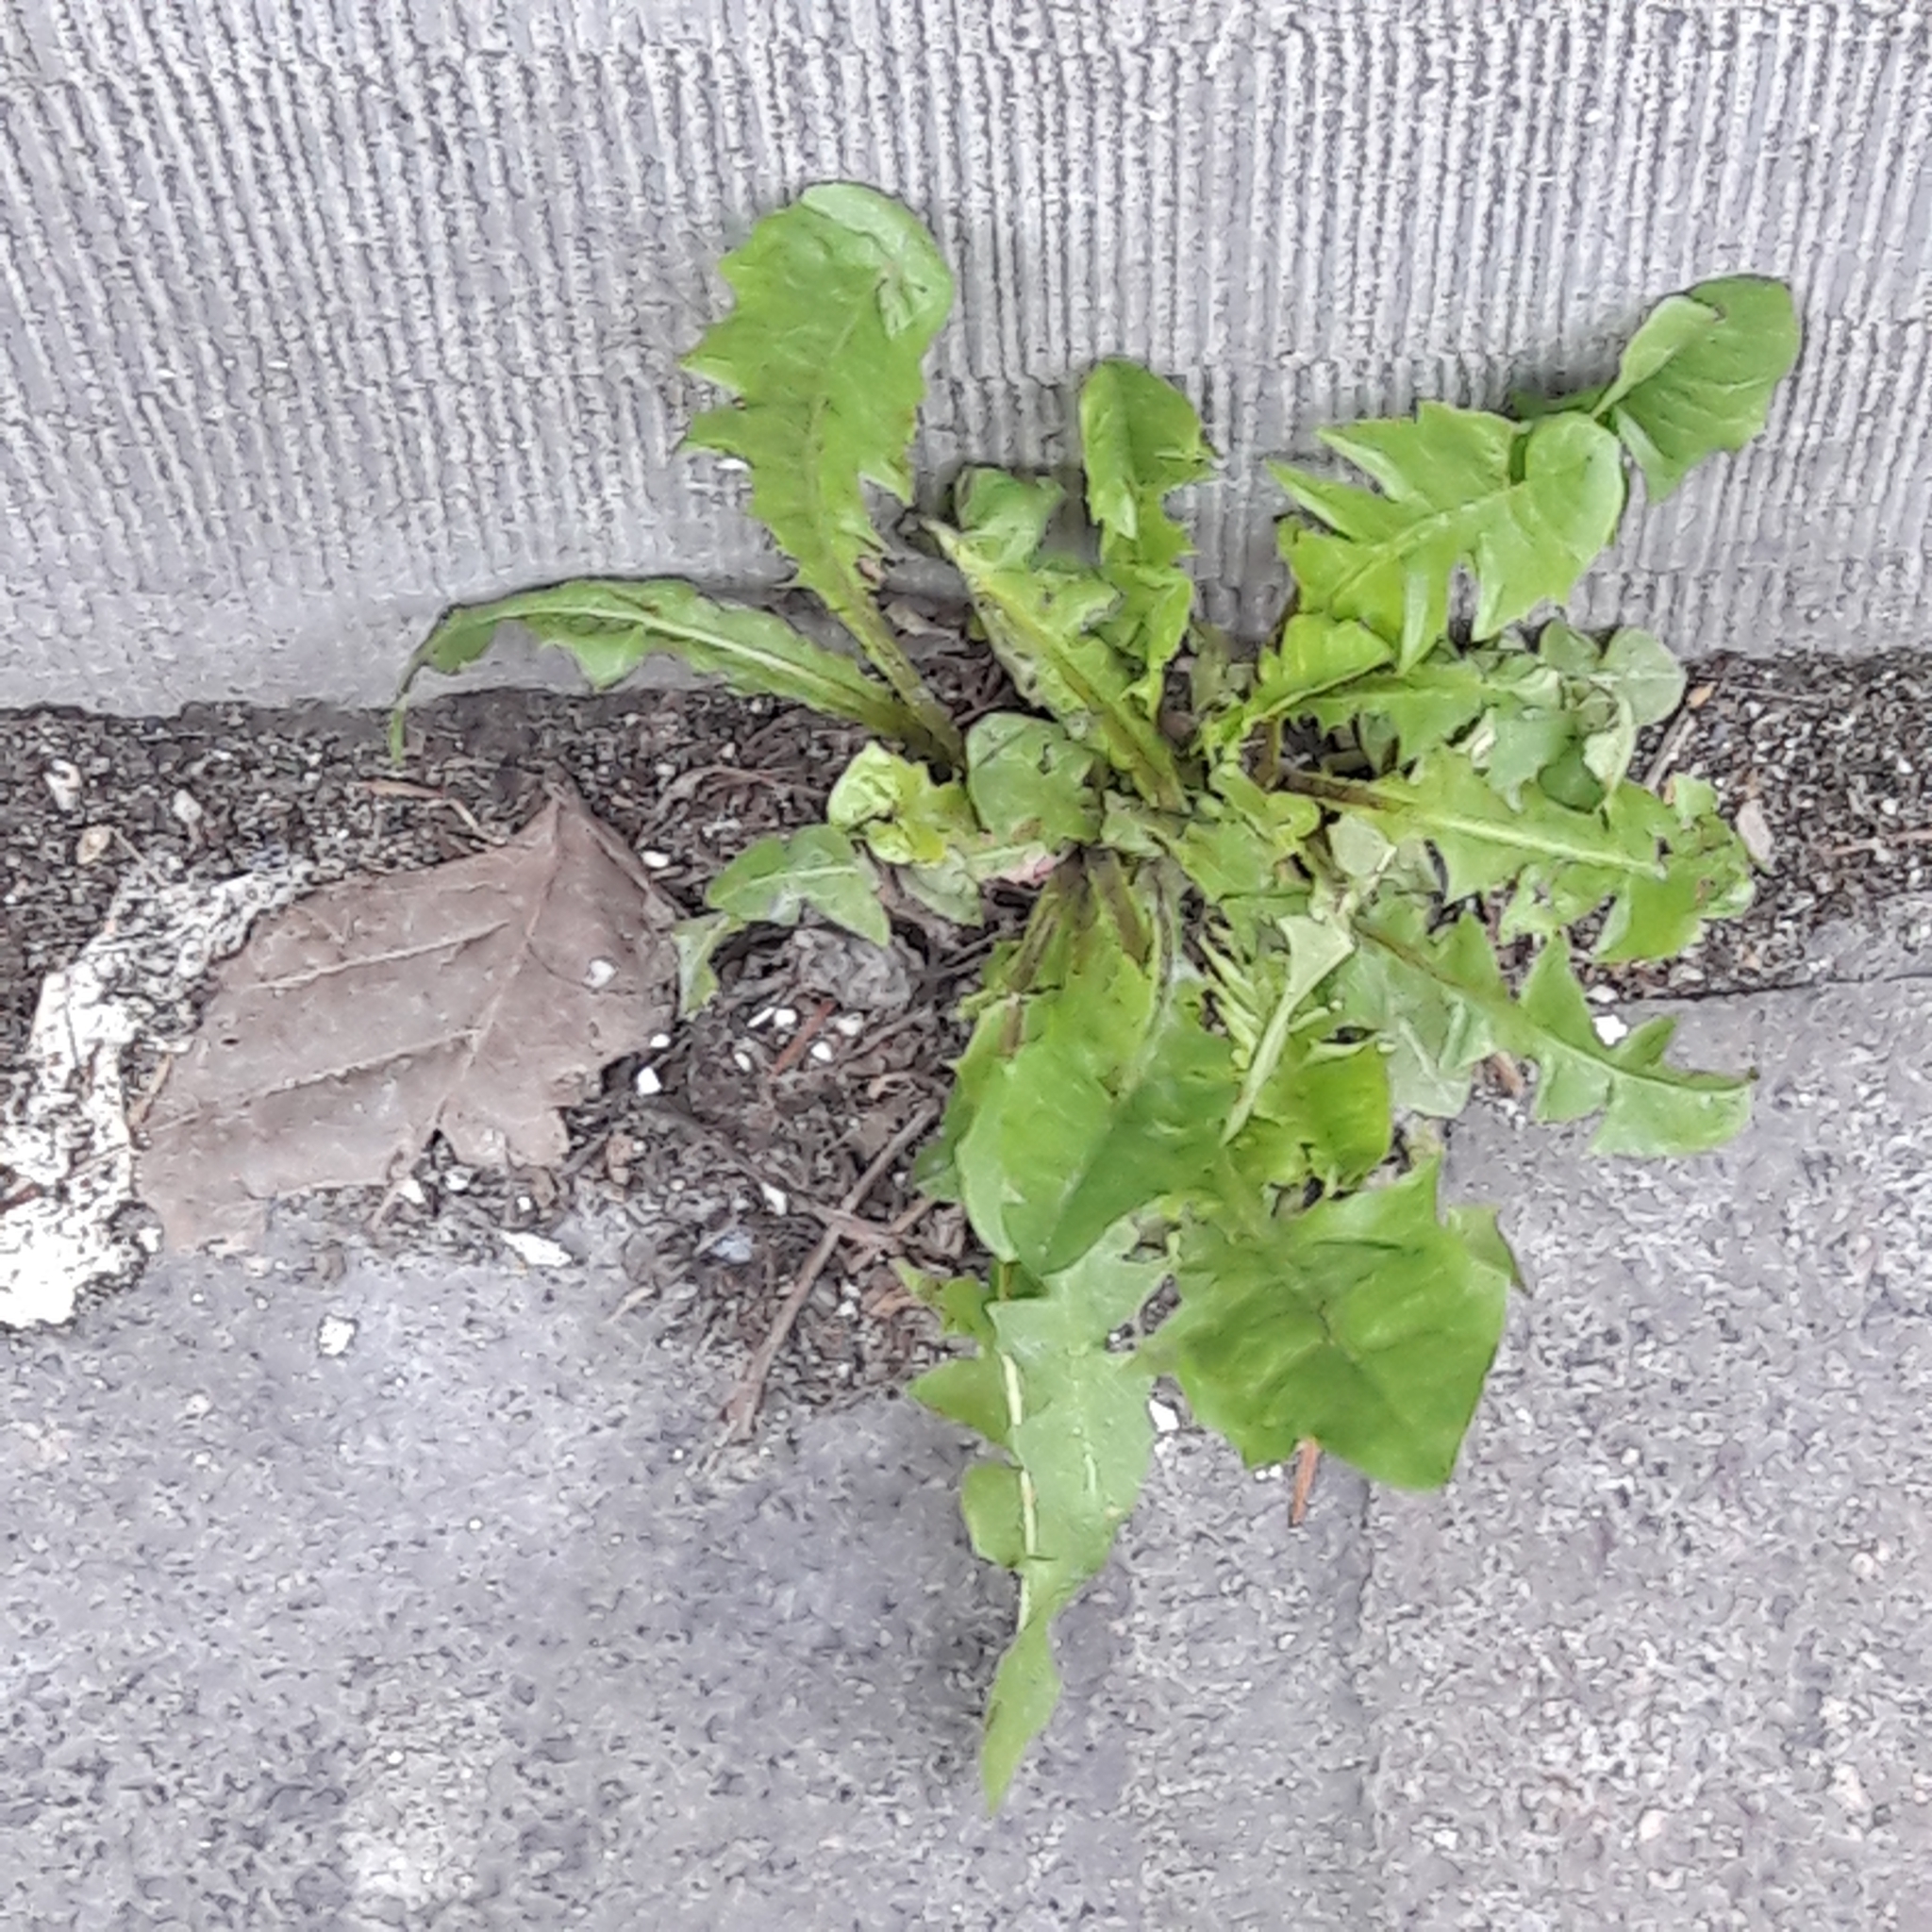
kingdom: Plantae
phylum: Tracheophyta
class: Magnoliopsida
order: Asterales
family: Asteraceae
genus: Taraxacum
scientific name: Taraxacum officinale
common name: Common dandelion
